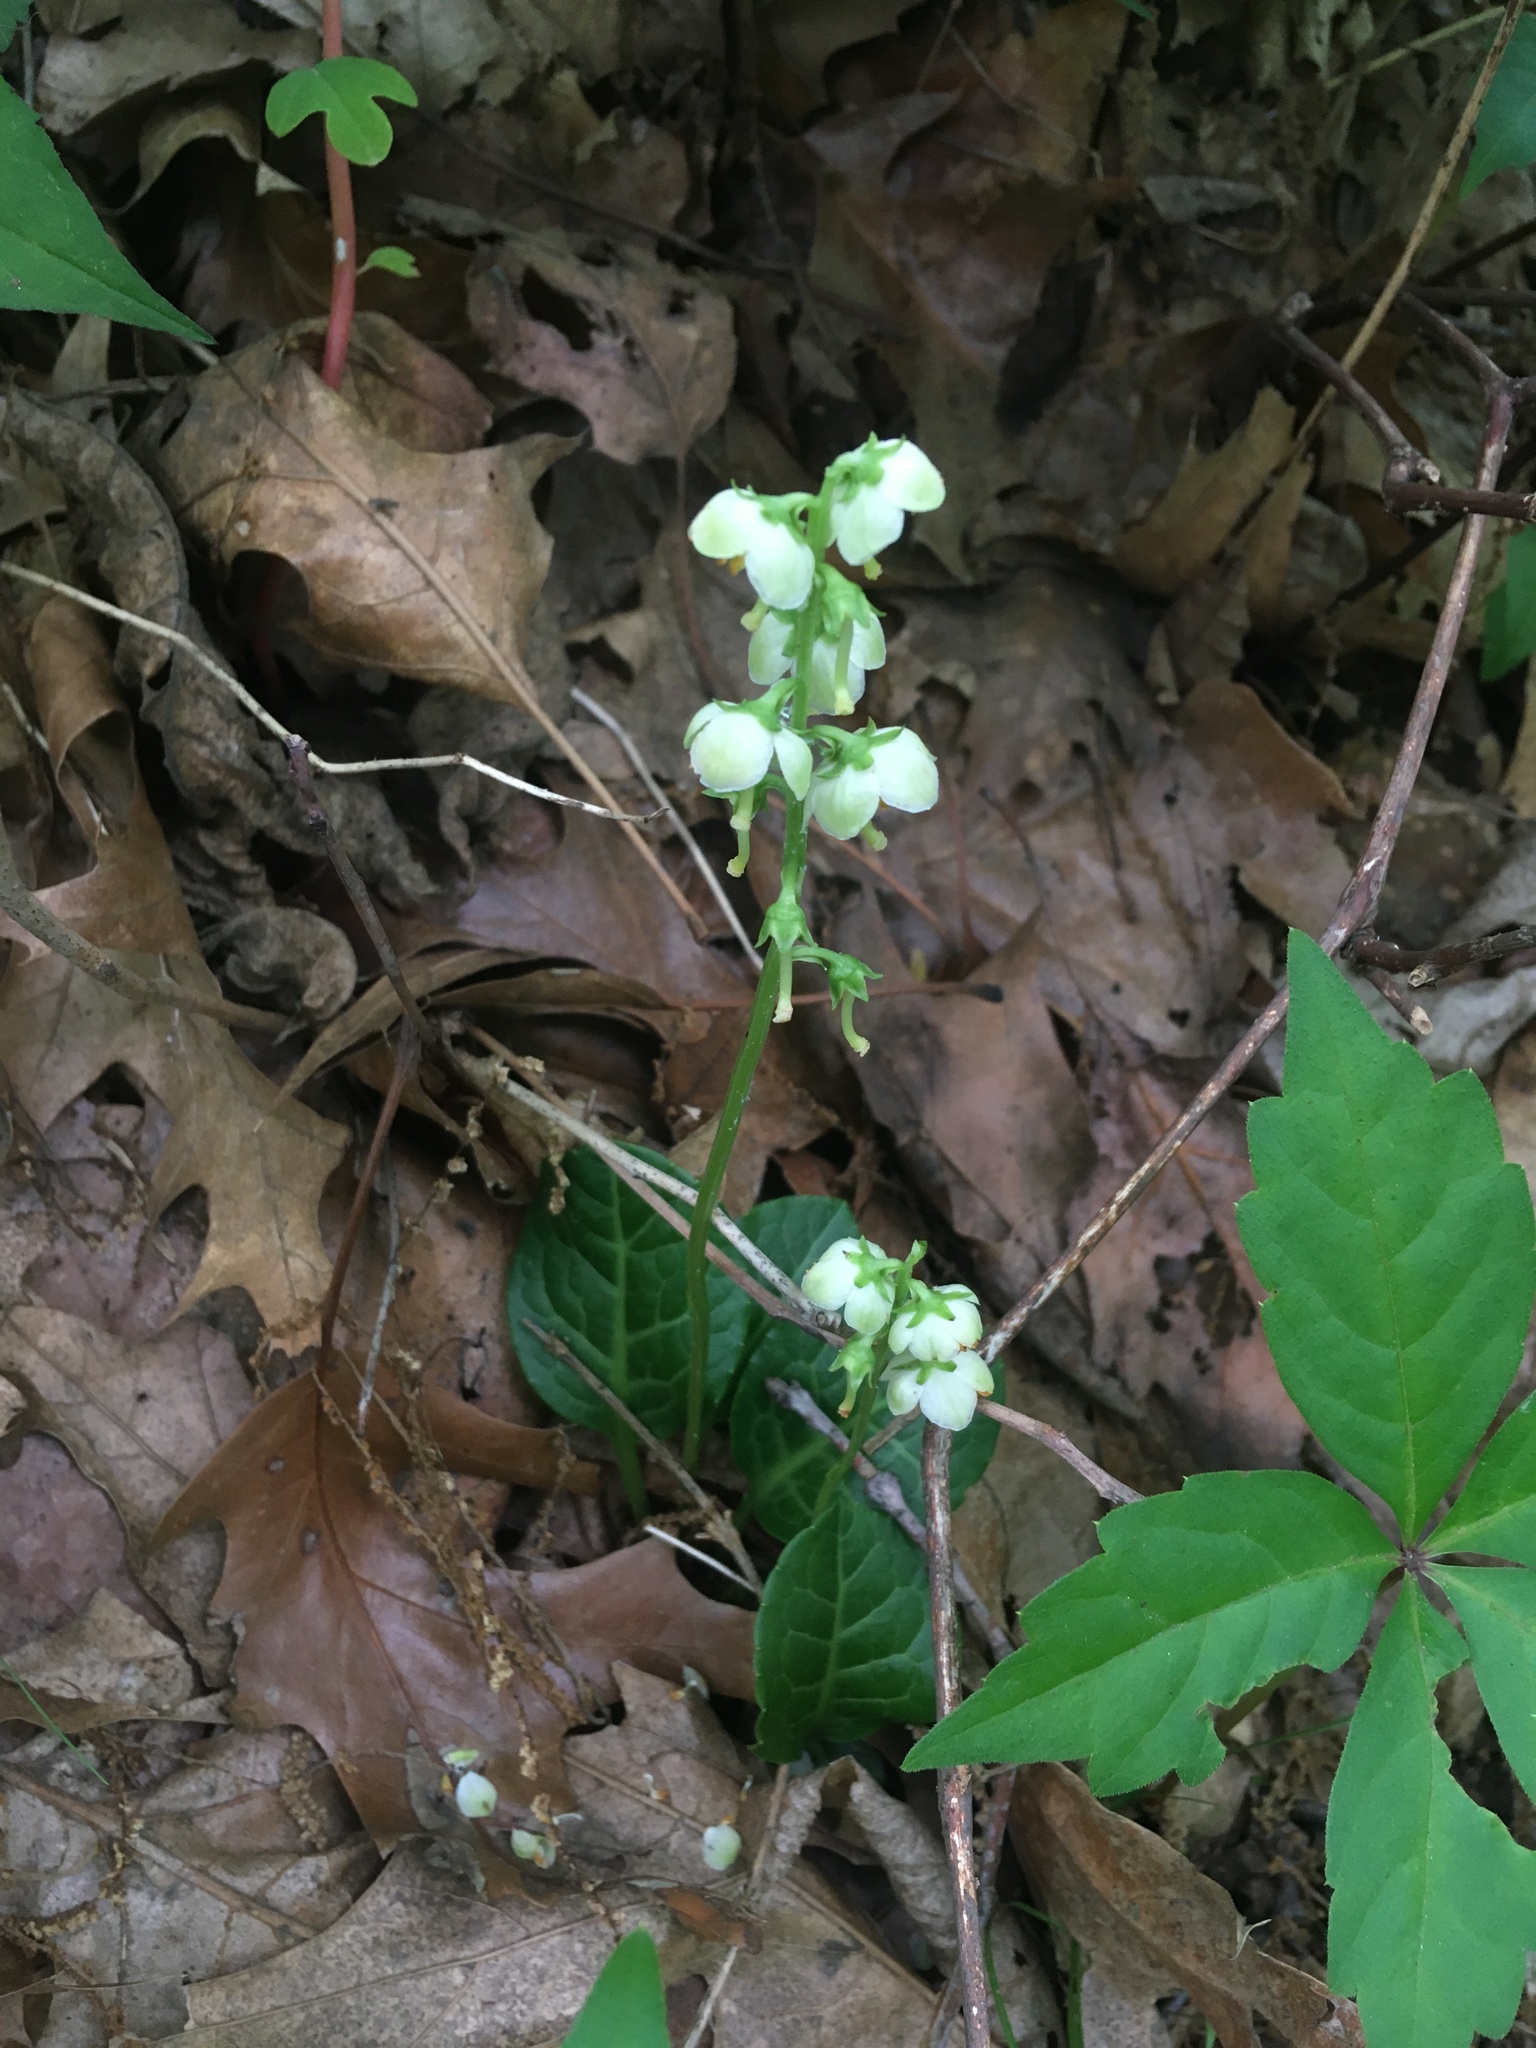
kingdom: Plantae
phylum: Tracheophyta
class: Magnoliopsida
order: Ericales
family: Ericaceae
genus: Pyrola
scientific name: Pyrola americana
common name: American wintergreen
